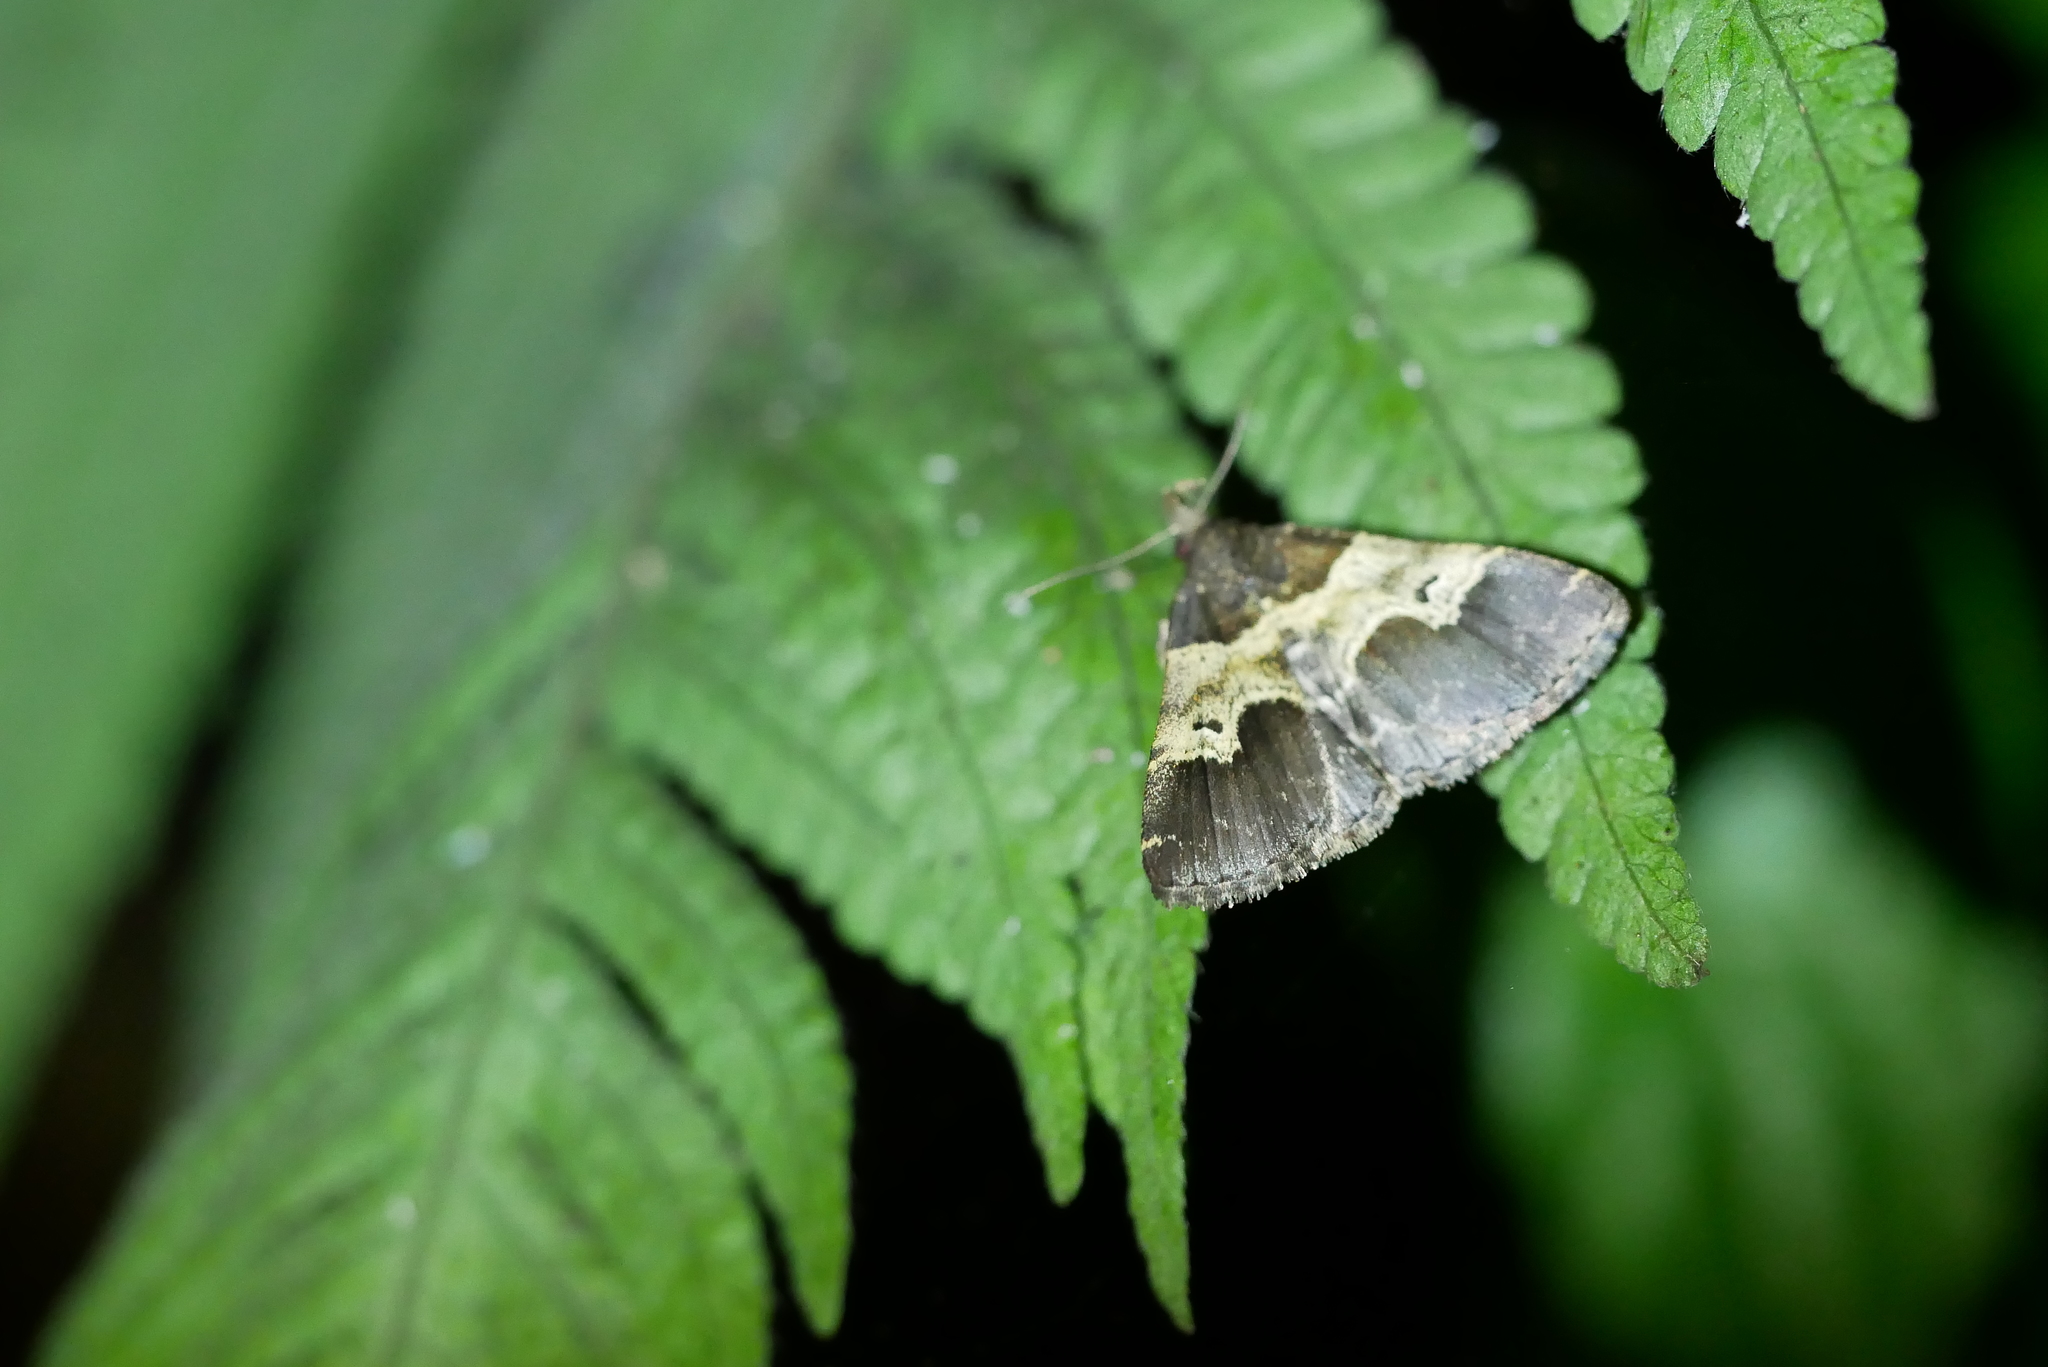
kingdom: Animalia
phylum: Arthropoda
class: Insecta
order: Lepidoptera
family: Erebidae
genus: Bertula
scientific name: Bertula centralis
